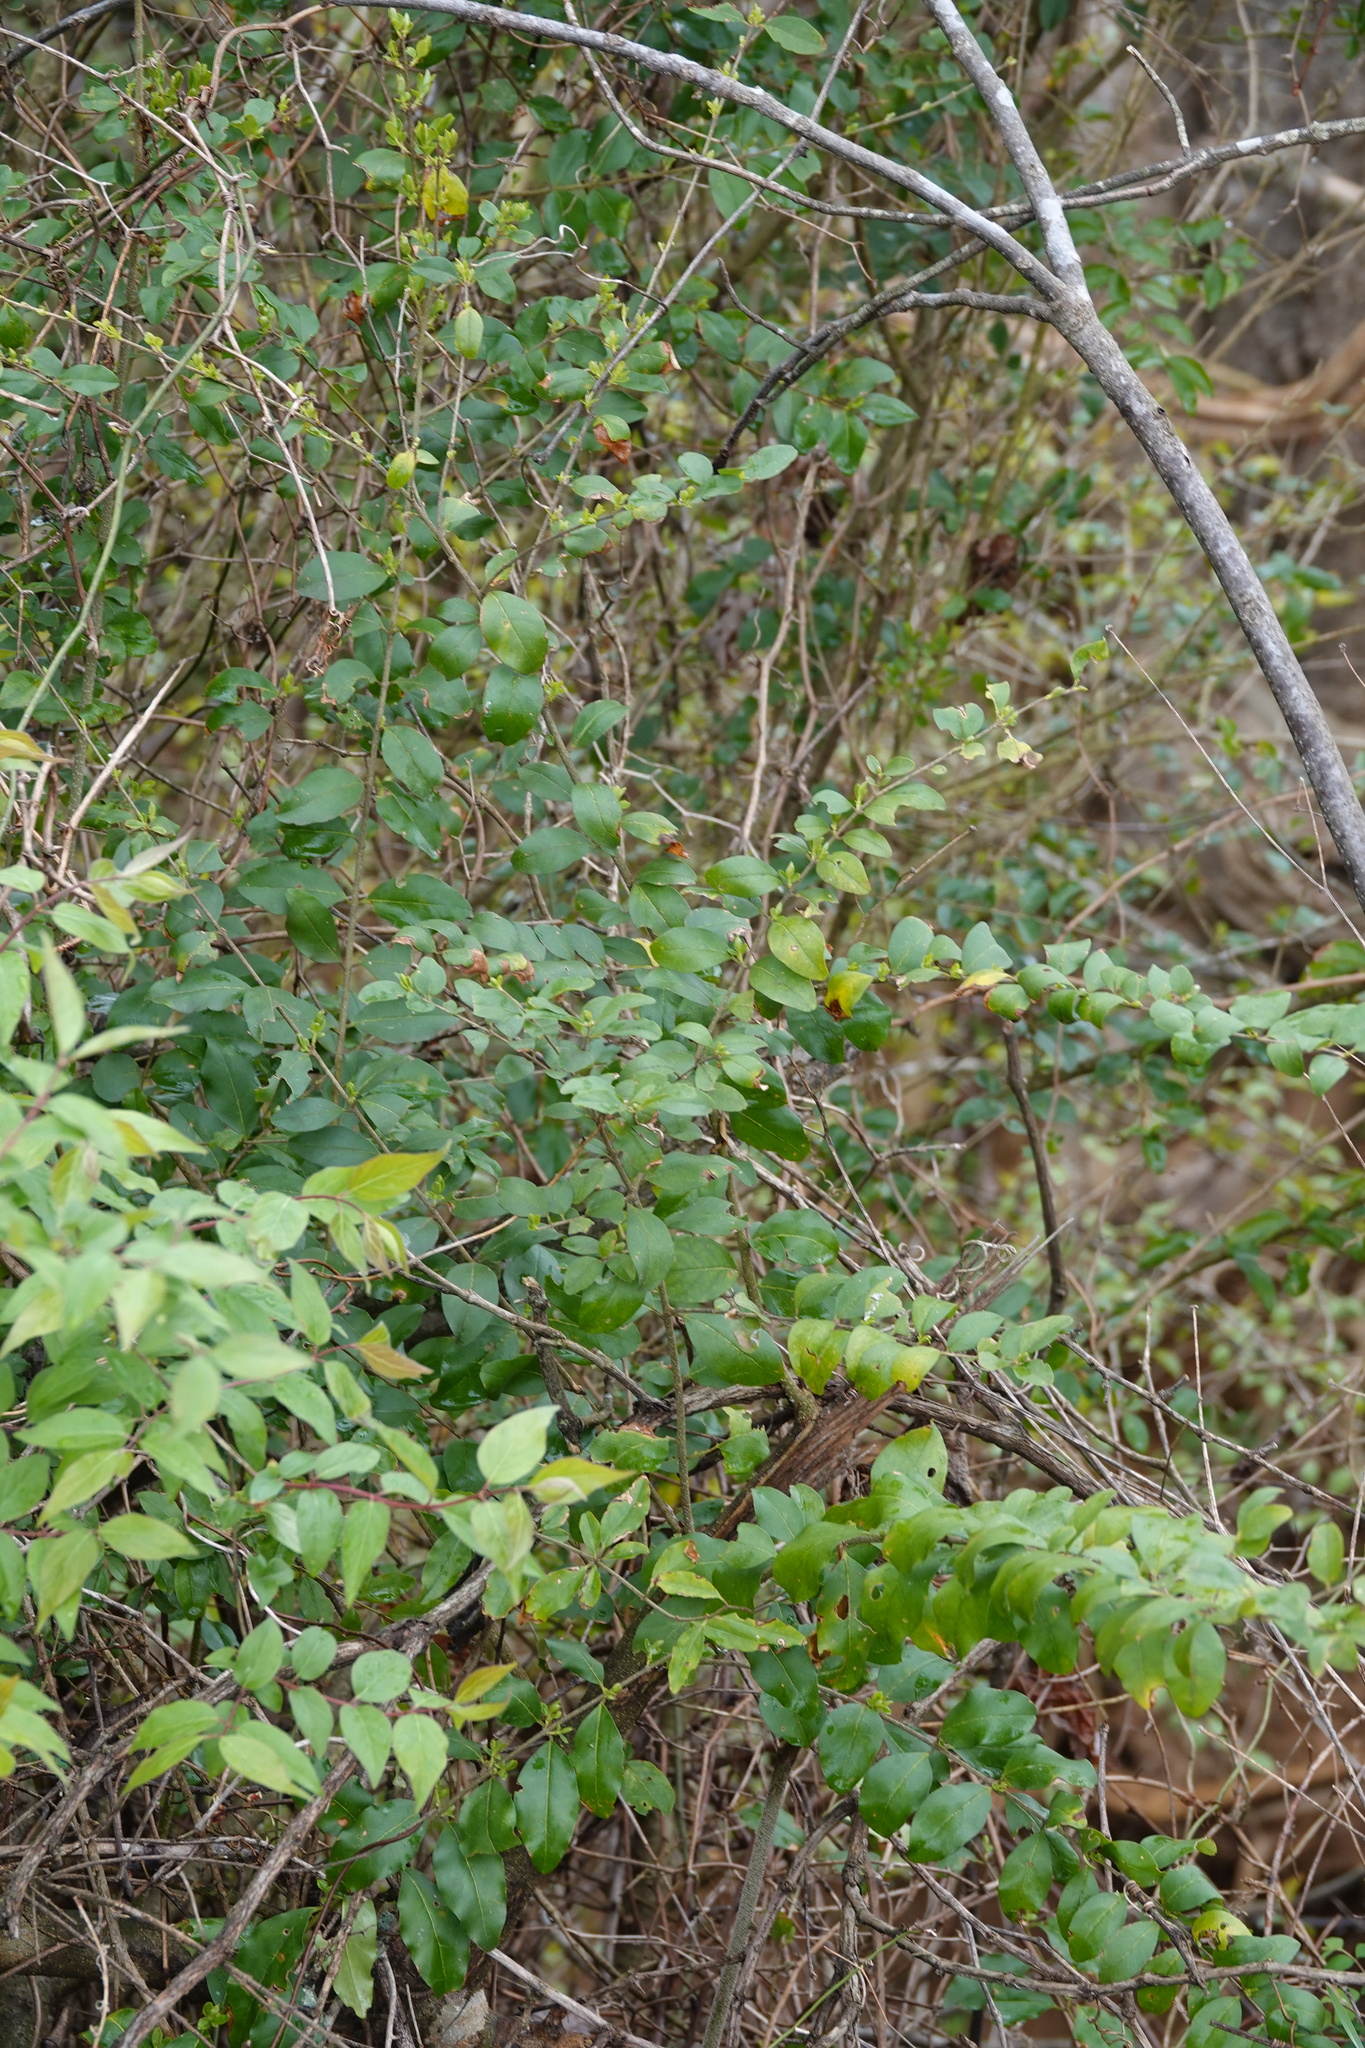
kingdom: Plantae
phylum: Tracheophyta
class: Magnoliopsida
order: Lamiales
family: Oleaceae
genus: Ligustrum
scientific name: Ligustrum sinense
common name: Chinese privet
